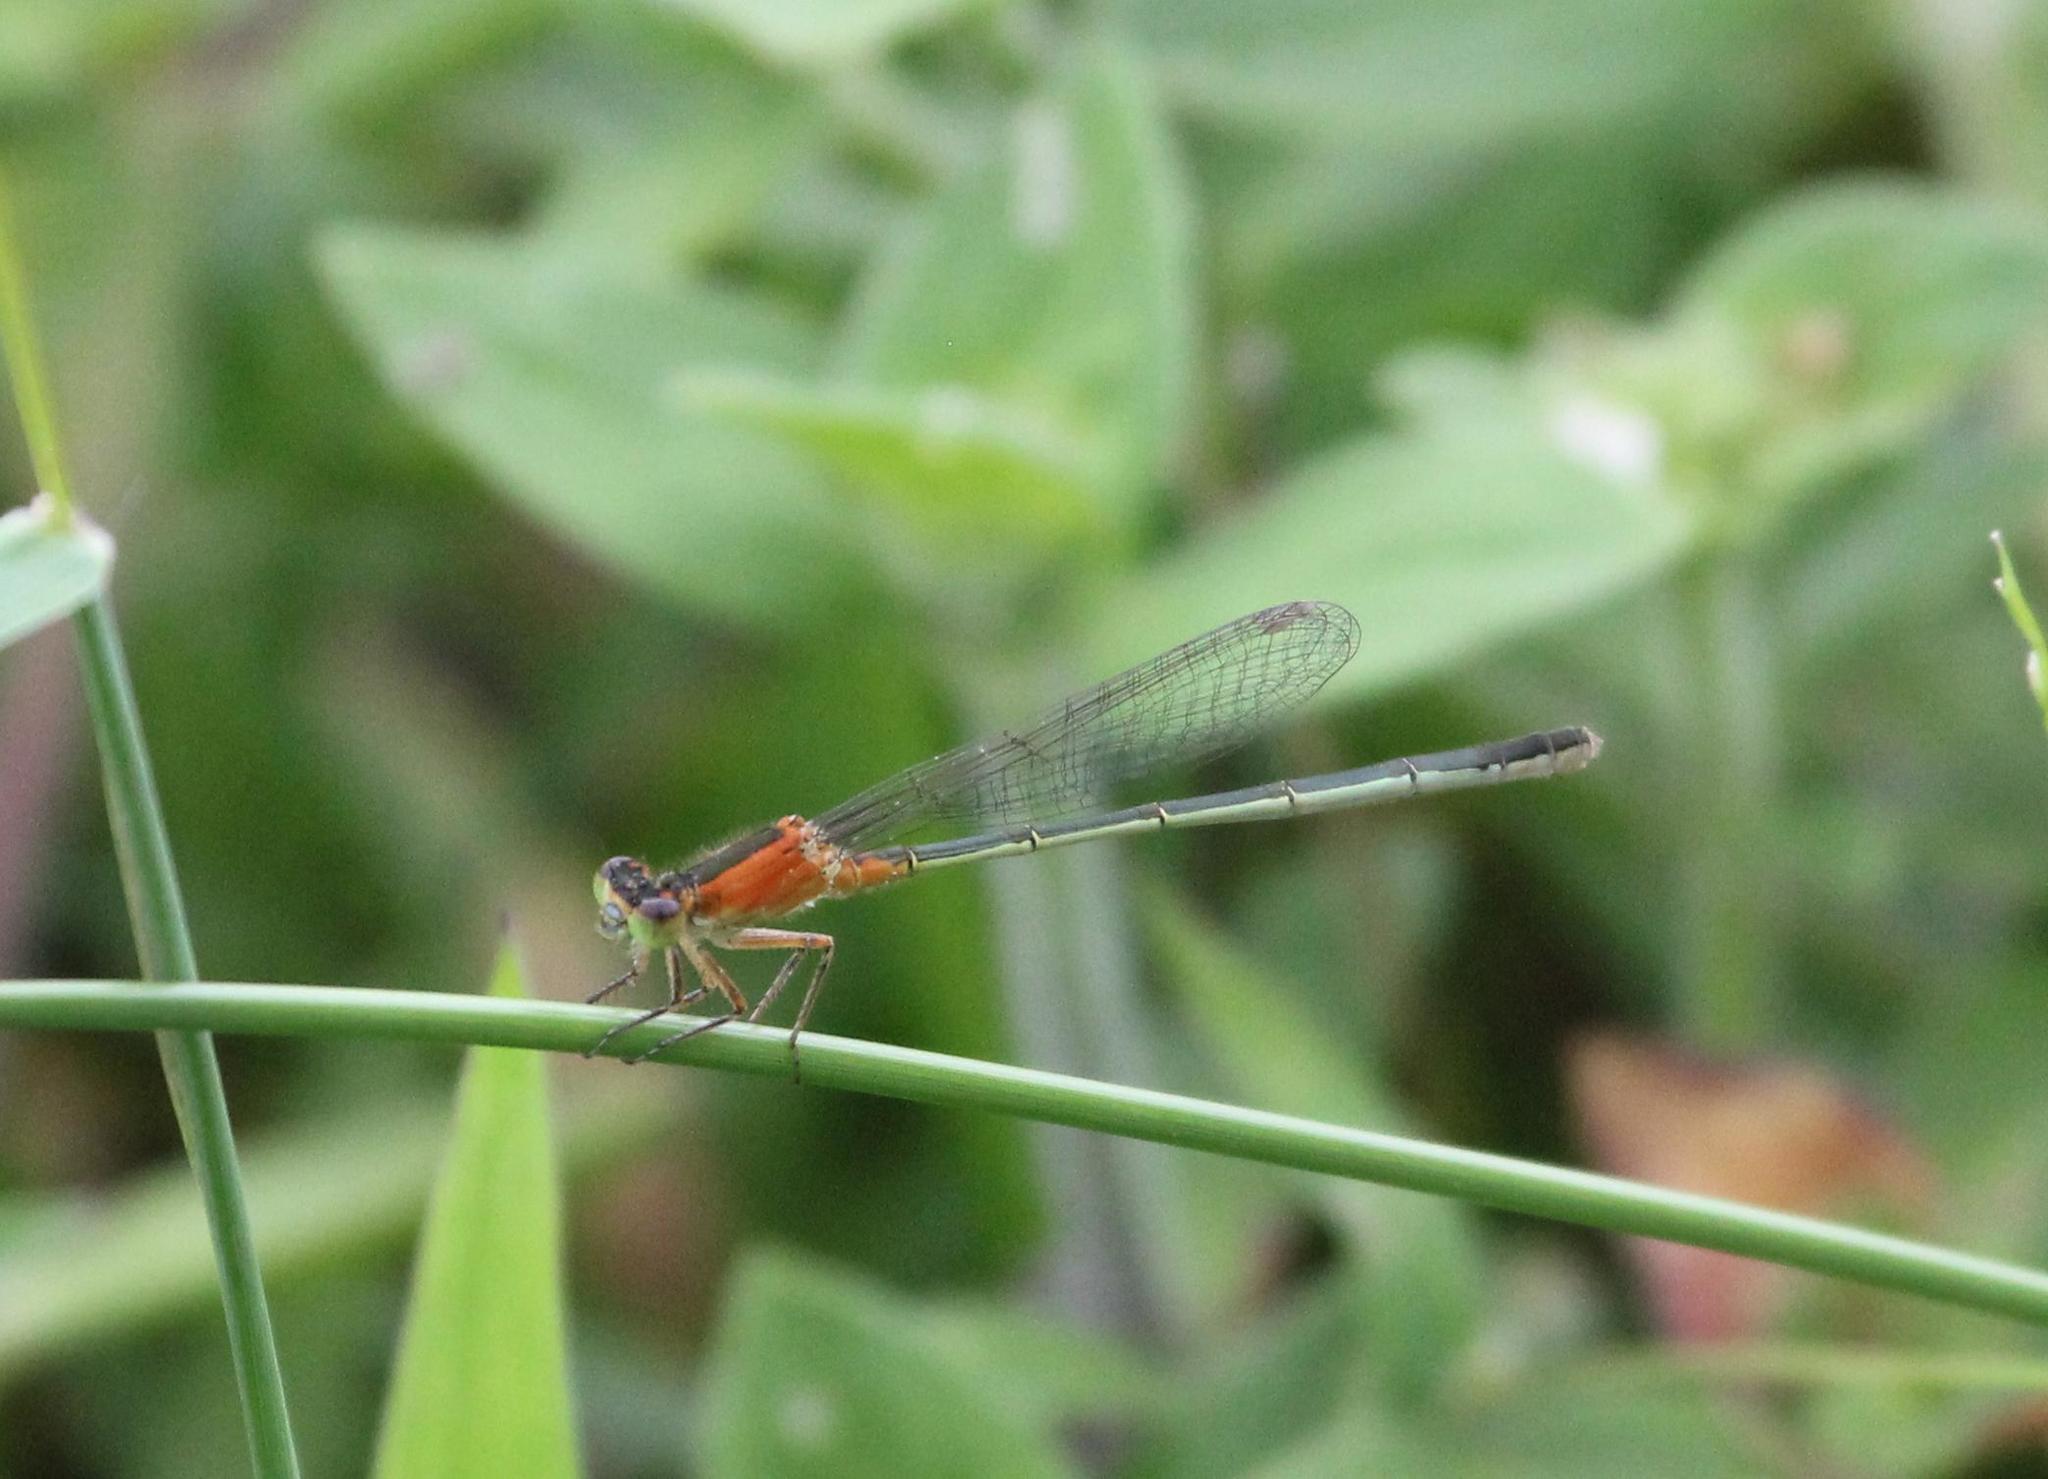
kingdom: Animalia
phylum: Arthropoda
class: Insecta
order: Odonata
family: Coenagrionidae
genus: Ischnura
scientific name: Ischnura ramburii
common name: Rambur's forktail
